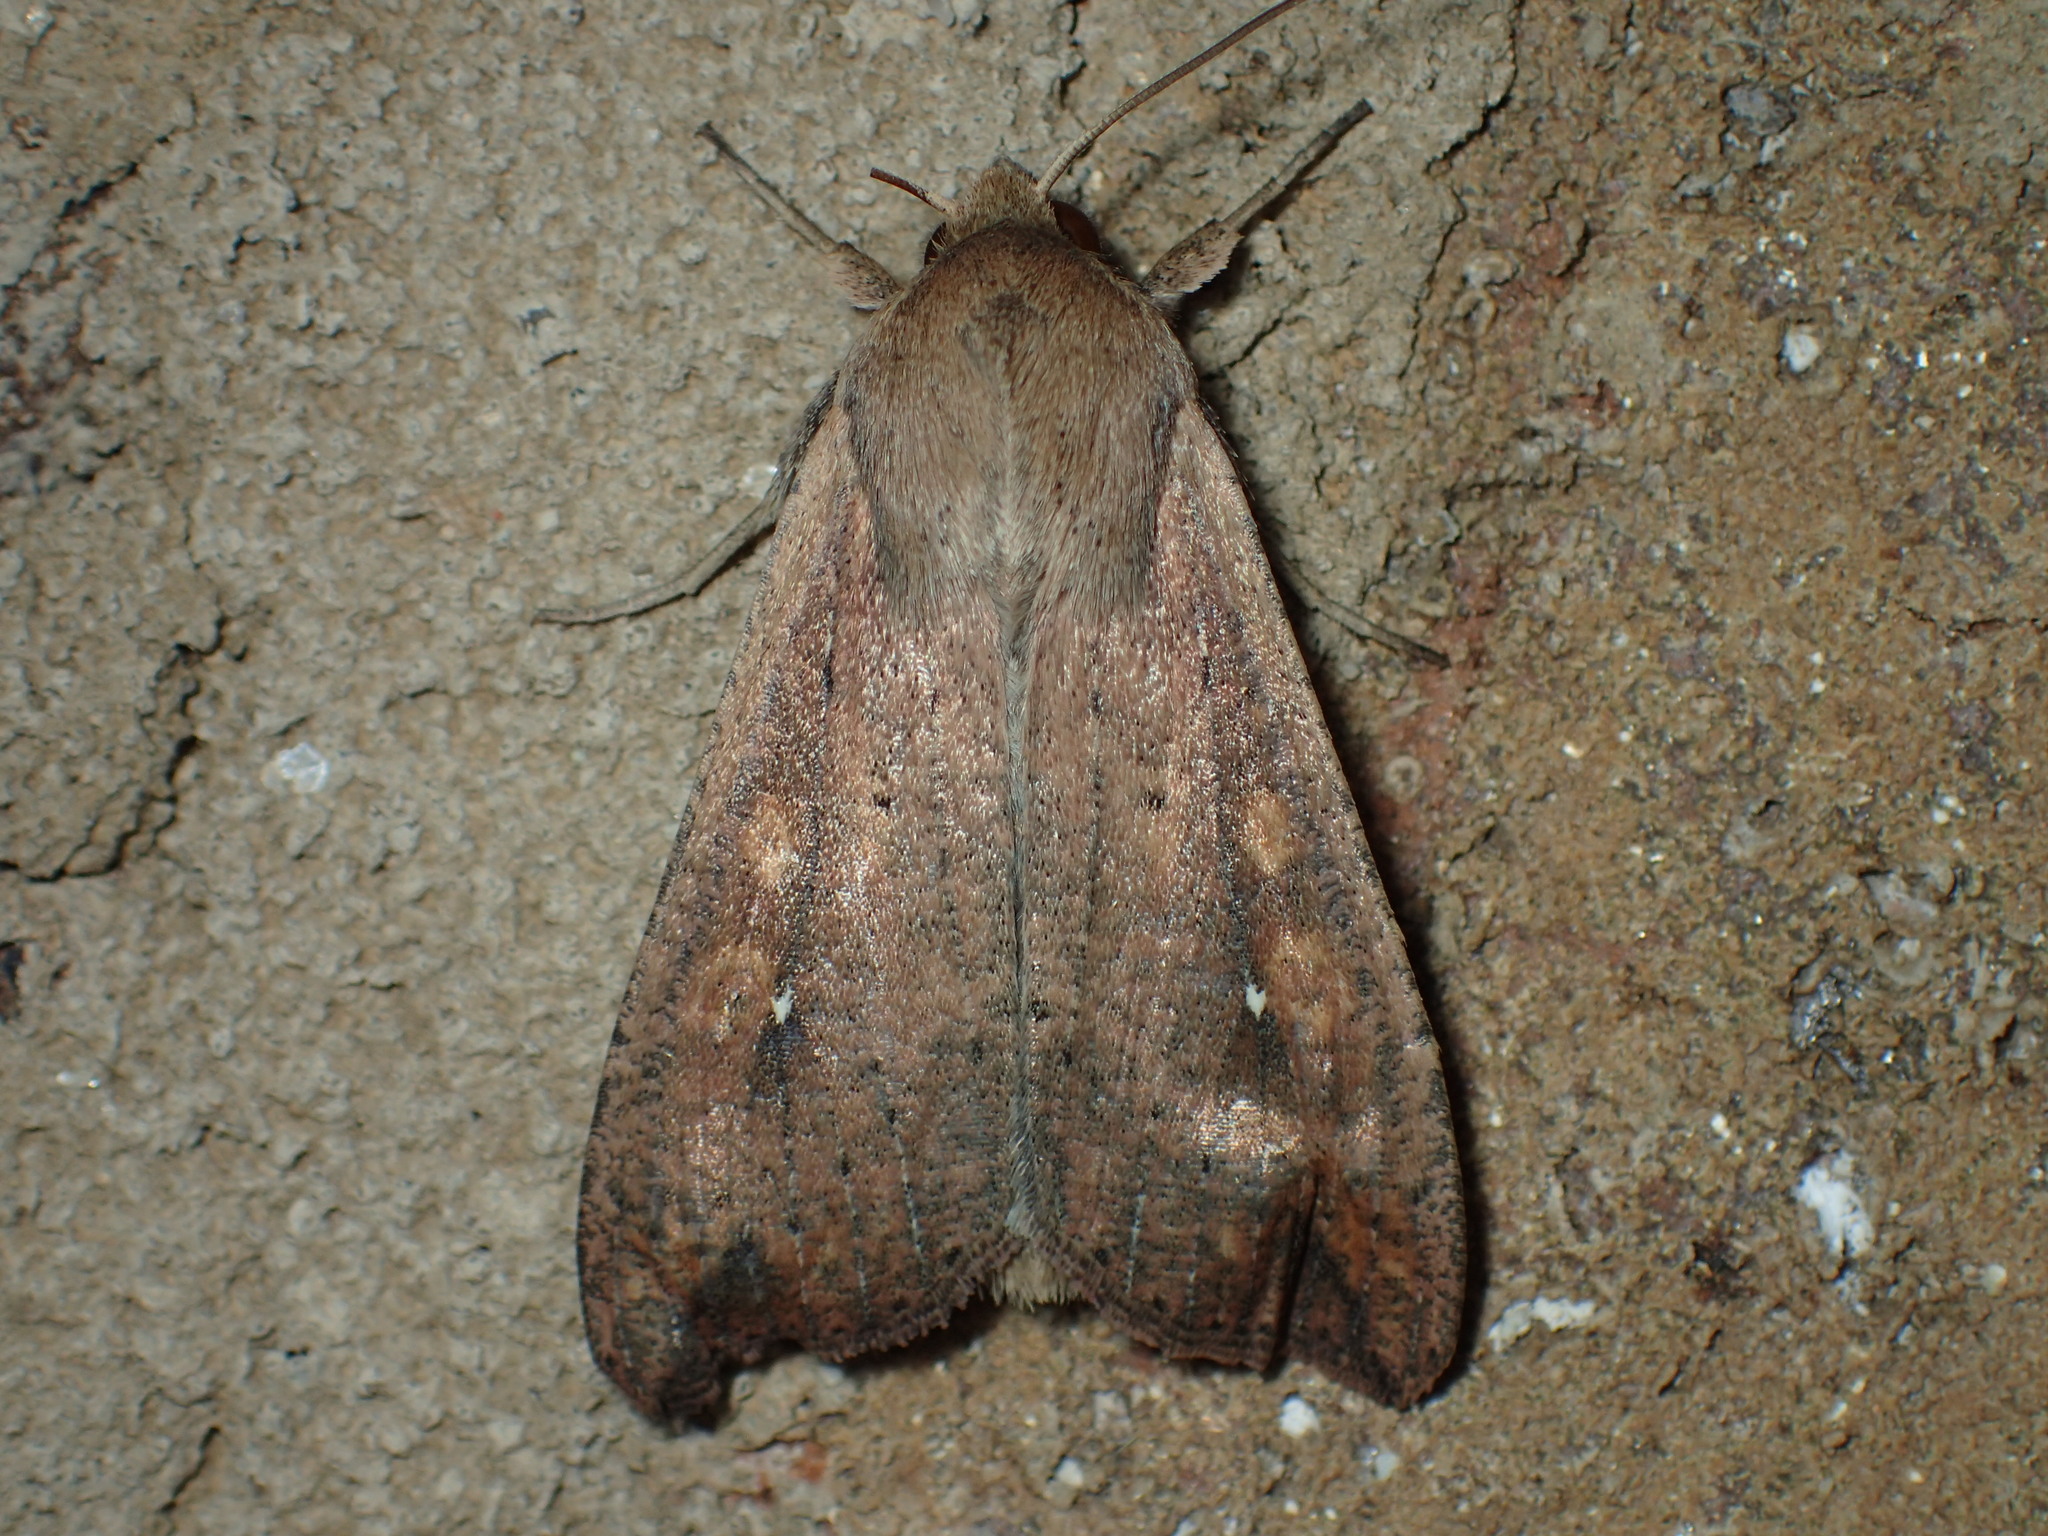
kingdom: Animalia
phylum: Arthropoda
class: Insecta
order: Lepidoptera
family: Noctuidae
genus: Mythimna
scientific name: Mythimna unipuncta
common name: White-speck
